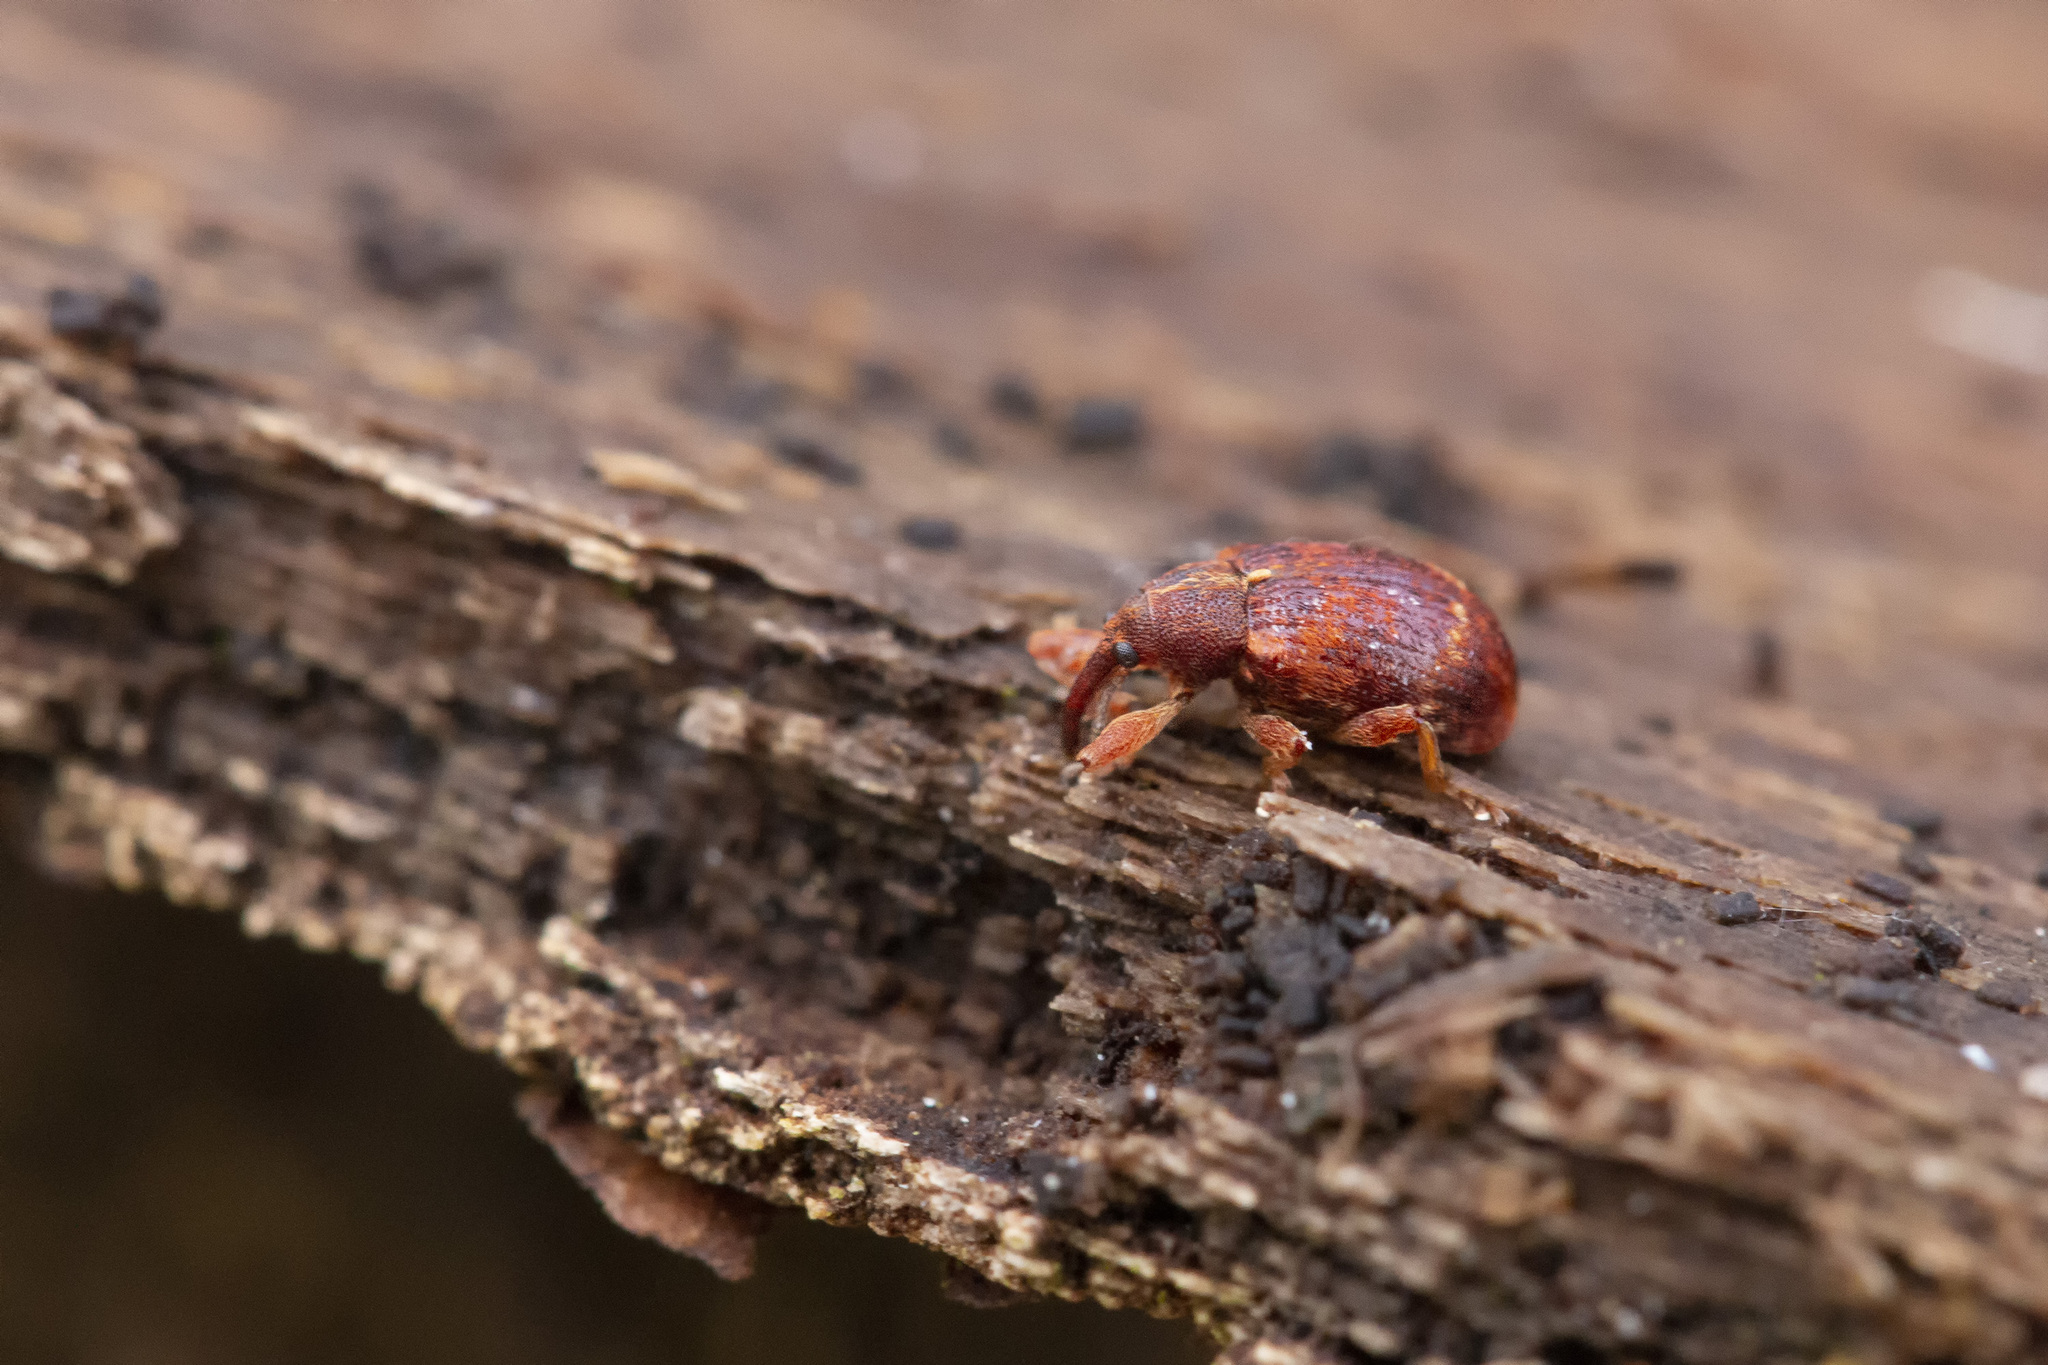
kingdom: Animalia
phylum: Arthropoda
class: Insecta
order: Coleoptera
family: Curculionidae
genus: Anthonomus
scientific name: Anthonomus pedicularius
